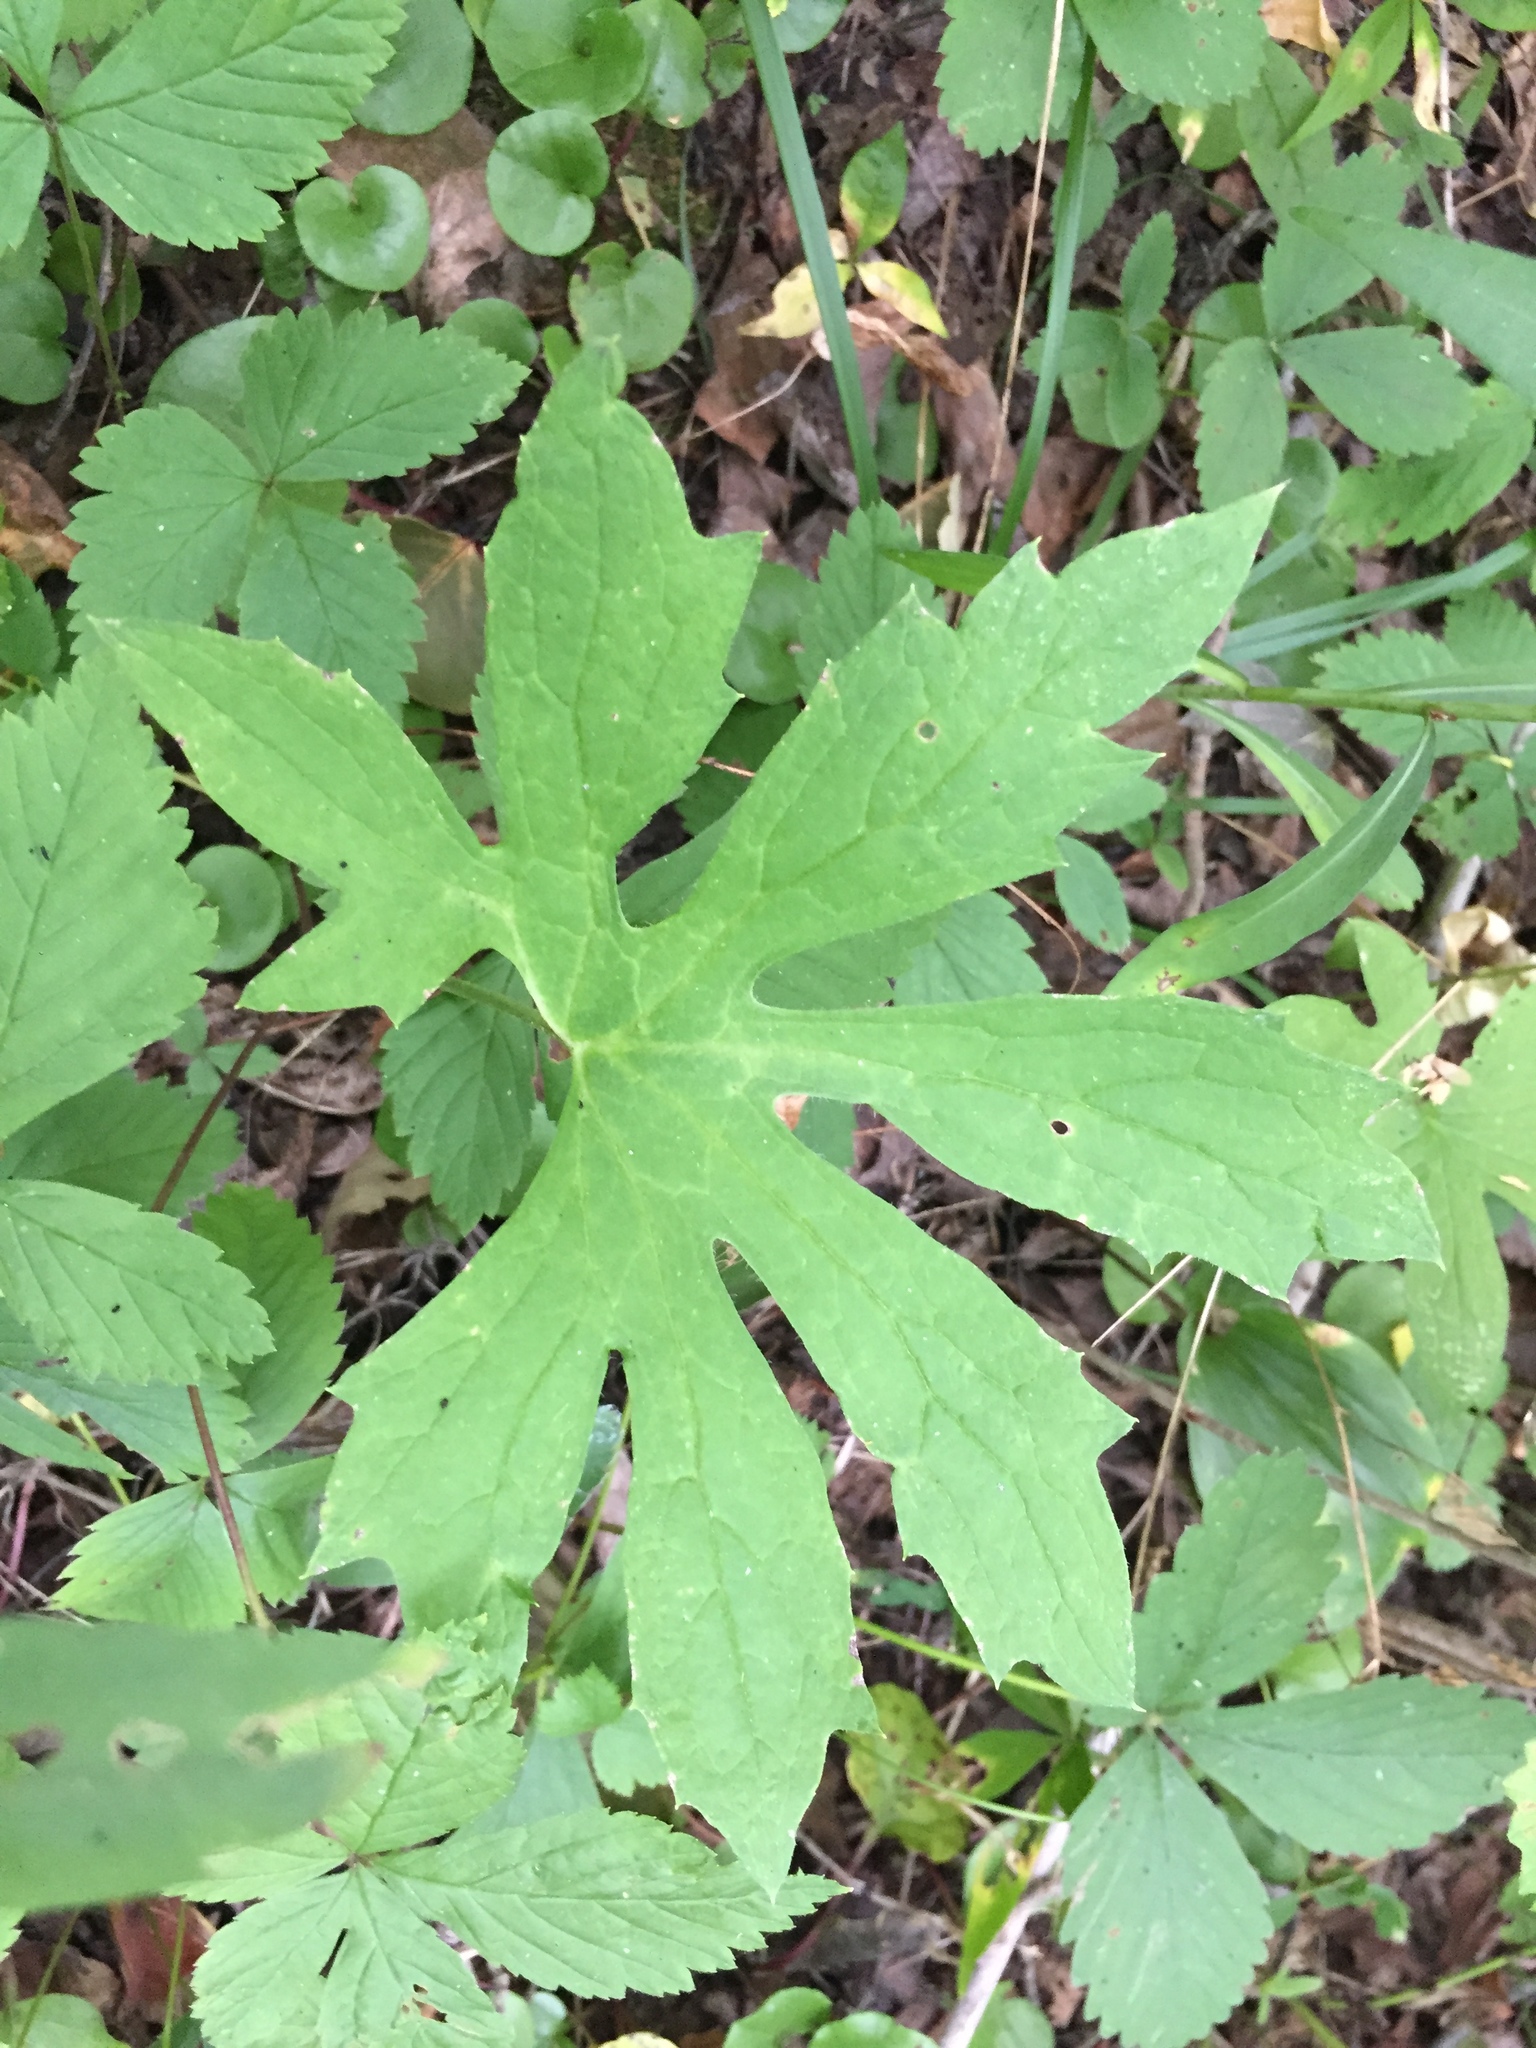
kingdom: Plantae
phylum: Tracheophyta
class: Magnoliopsida
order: Asterales
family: Asteraceae
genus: Petasites
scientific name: Petasites frigidus
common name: Arctic butterbur
